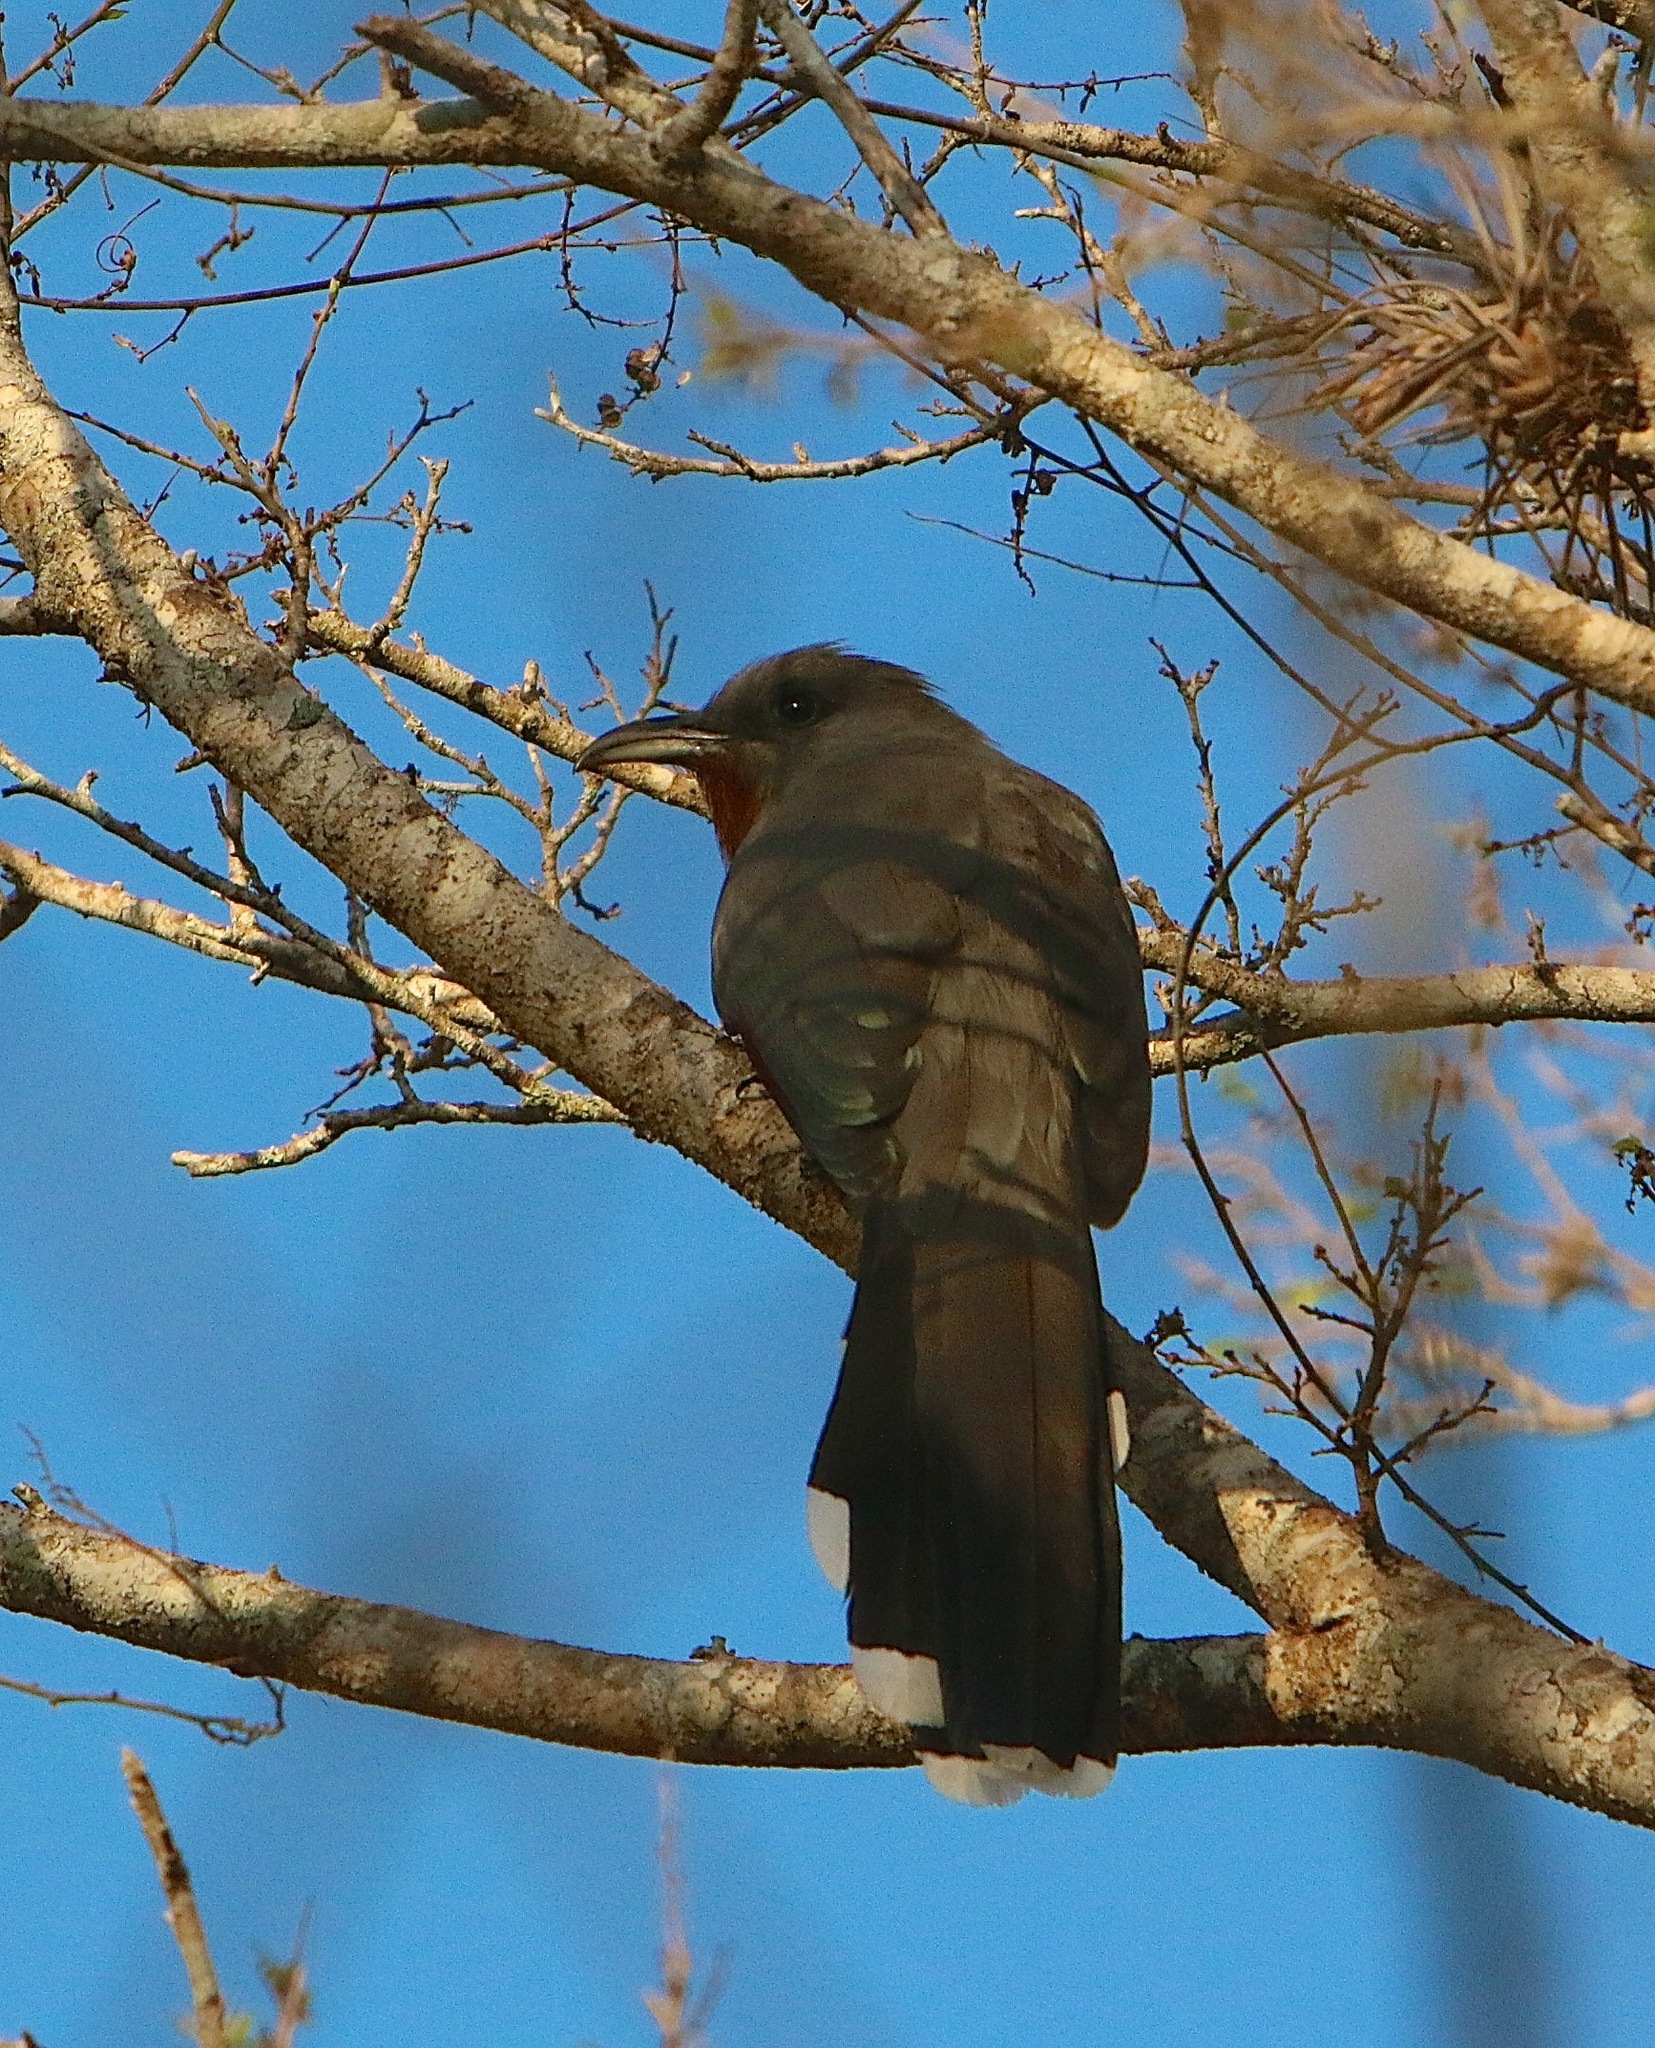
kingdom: Animalia
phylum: Chordata
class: Aves
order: Cuculiformes
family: Cuculidae
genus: Hyetornis
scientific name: Hyetornis rufigularis
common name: Bay-breasted cuckoo
